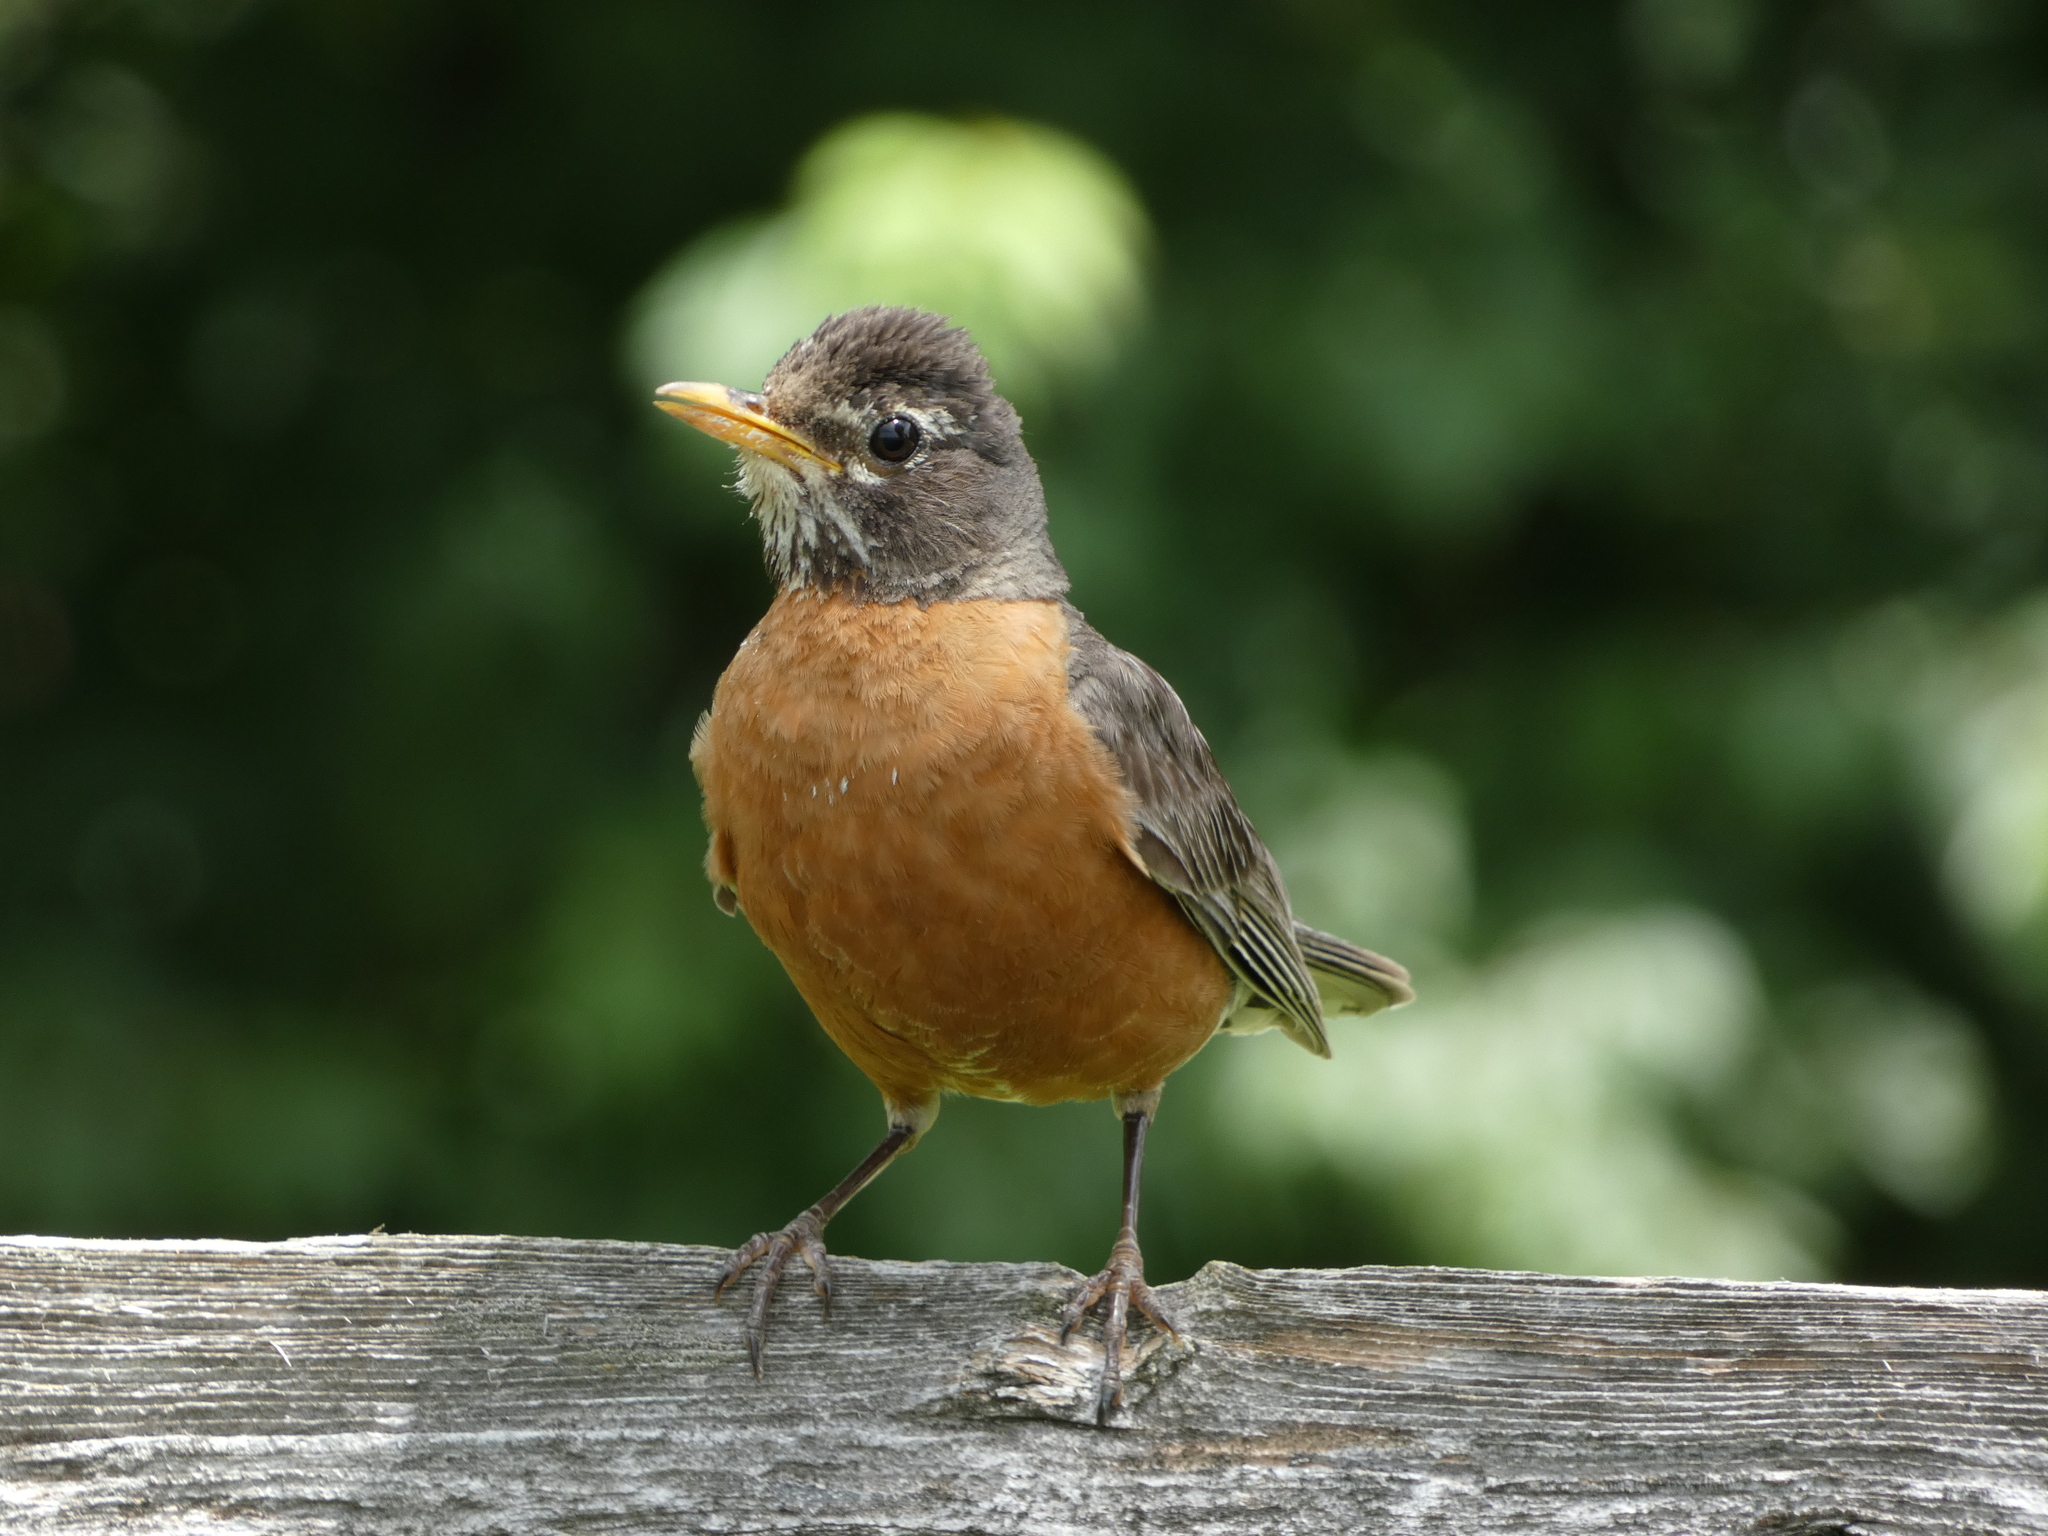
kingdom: Animalia
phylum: Chordata
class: Aves
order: Passeriformes
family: Turdidae
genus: Turdus
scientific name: Turdus migratorius
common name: American robin
